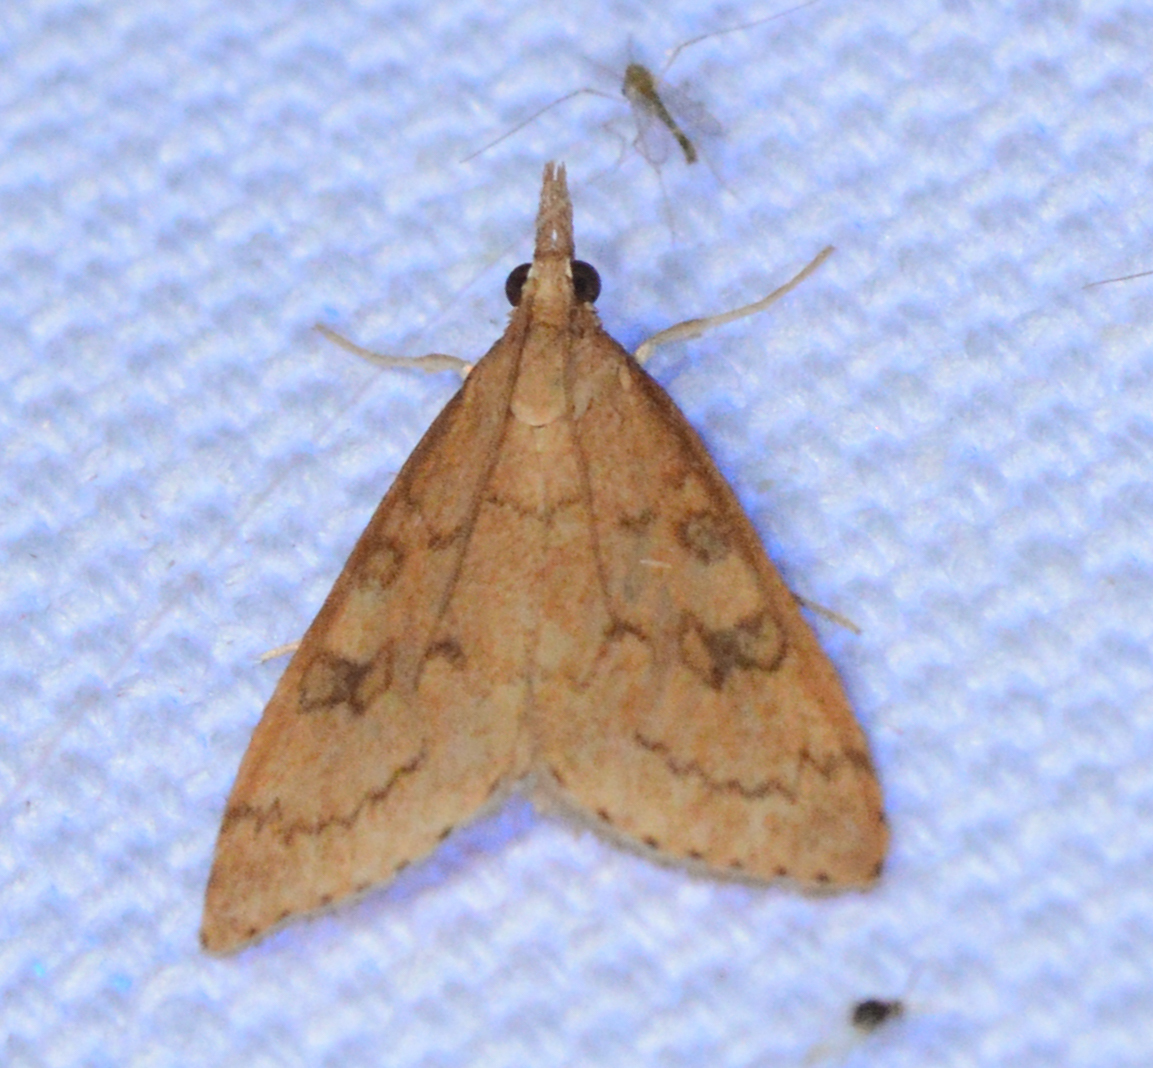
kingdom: Animalia
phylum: Arthropoda
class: Insecta
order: Lepidoptera
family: Crambidae
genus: Udea
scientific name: Udea rubigalis
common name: Celery leaftier moth
